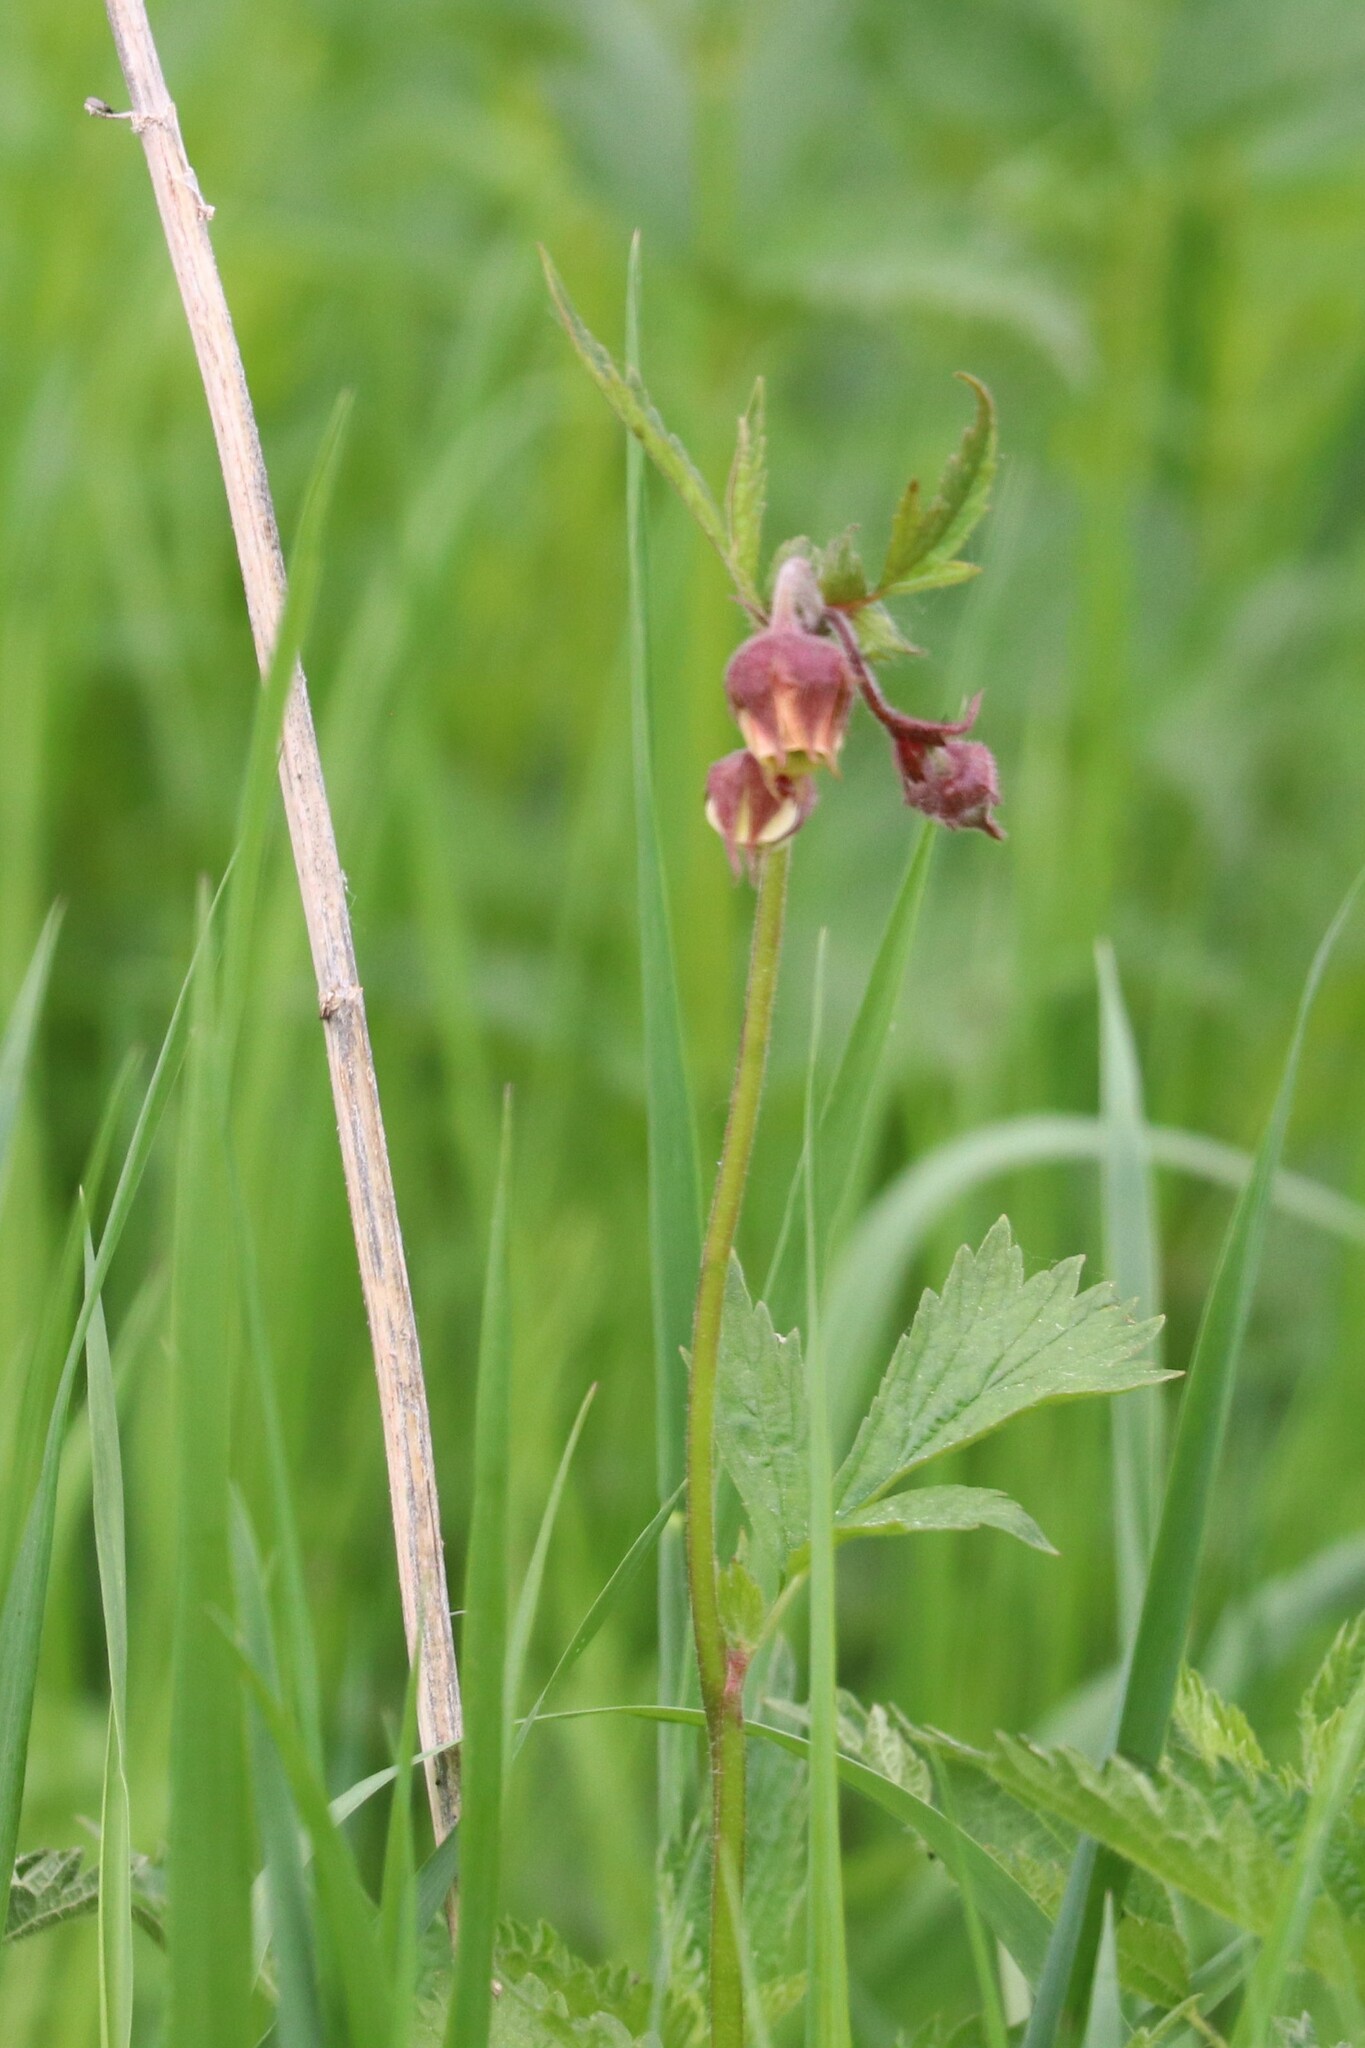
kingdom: Plantae
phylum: Tracheophyta
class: Magnoliopsida
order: Rosales
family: Rosaceae
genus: Geum
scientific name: Geum rivale
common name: Water avens
